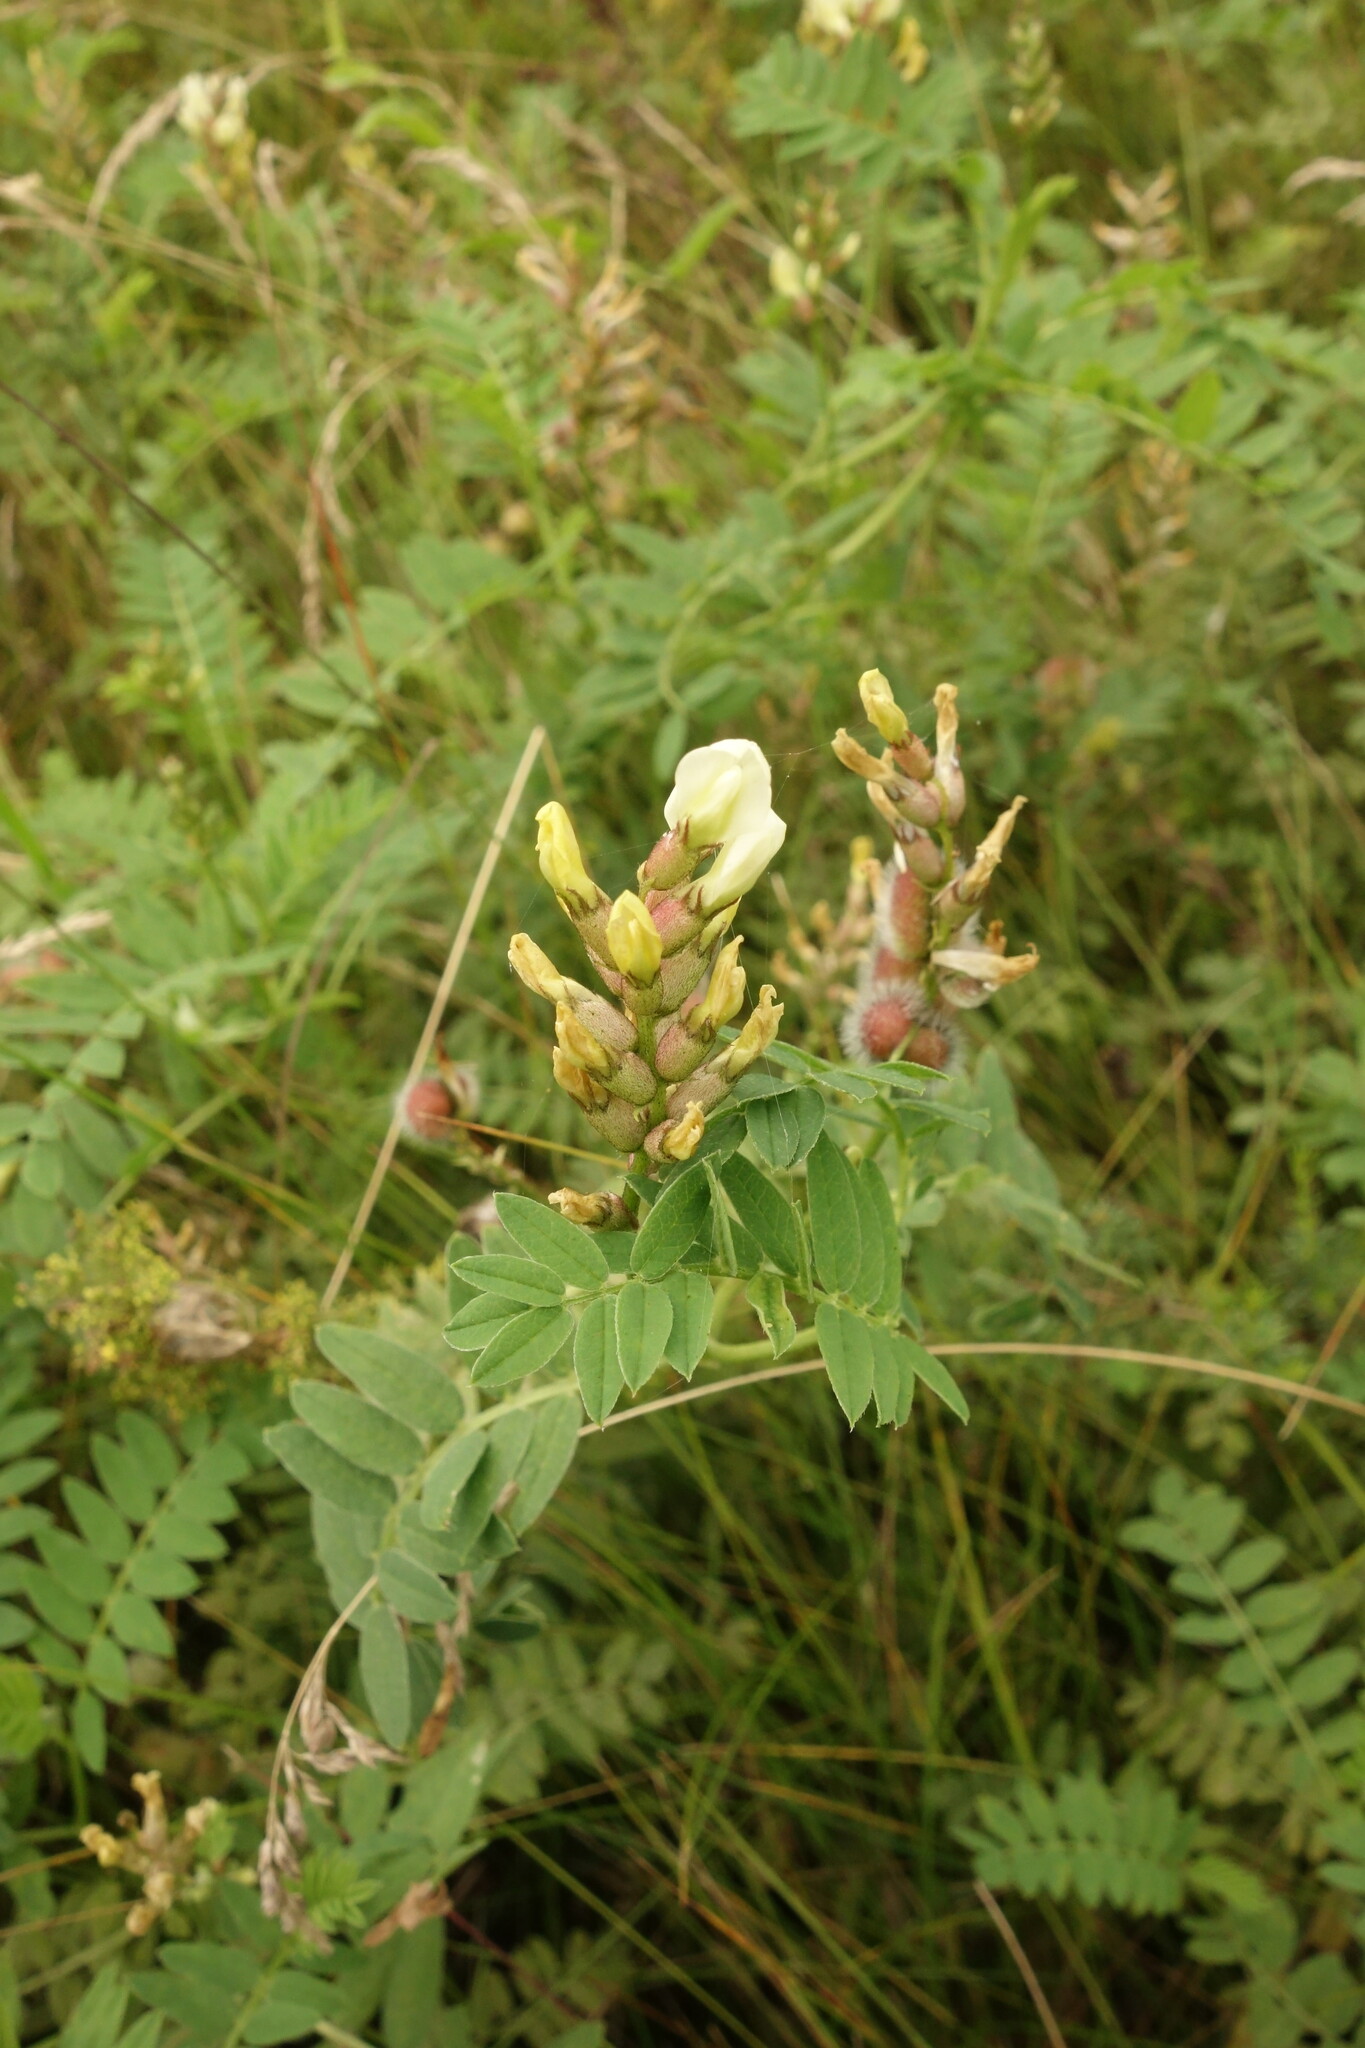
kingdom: Plantae
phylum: Tracheophyta
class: Magnoliopsida
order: Fabales
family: Fabaceae
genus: Astragalus
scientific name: Astragalus cicer
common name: Chick-pea milk-vetch
